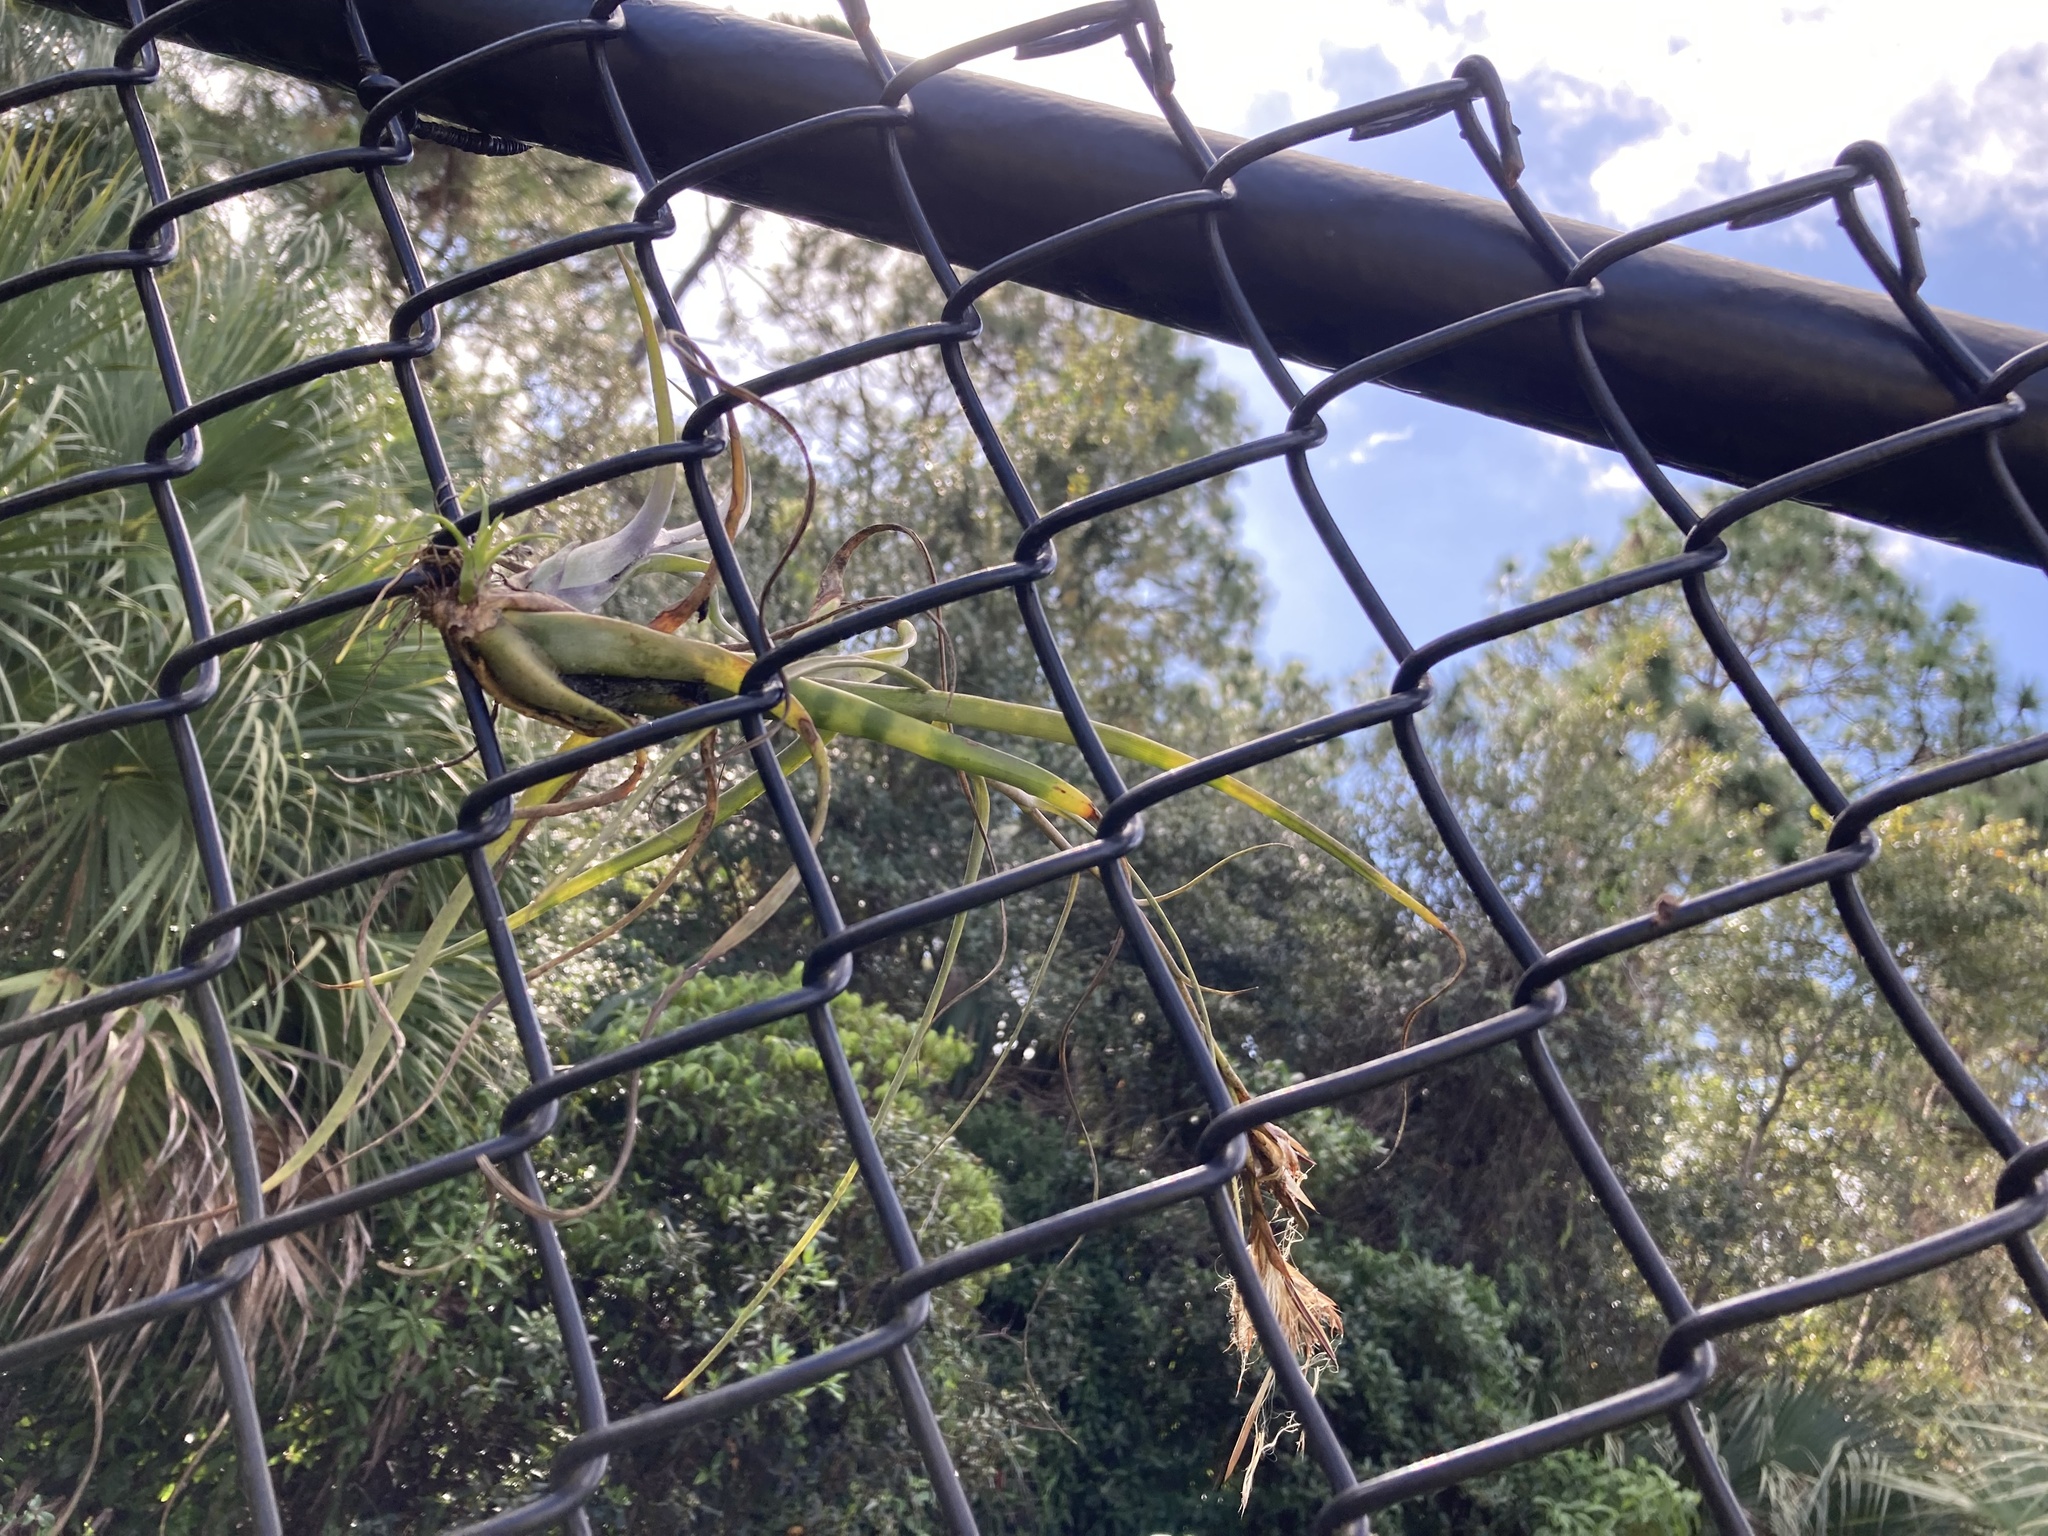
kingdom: Plantae
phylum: Tracheophyta
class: Liliopsida
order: Poales
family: Bromeliaceae
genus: Tillandsia
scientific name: Tillandsia balbisiana
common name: Northern needleleaf
